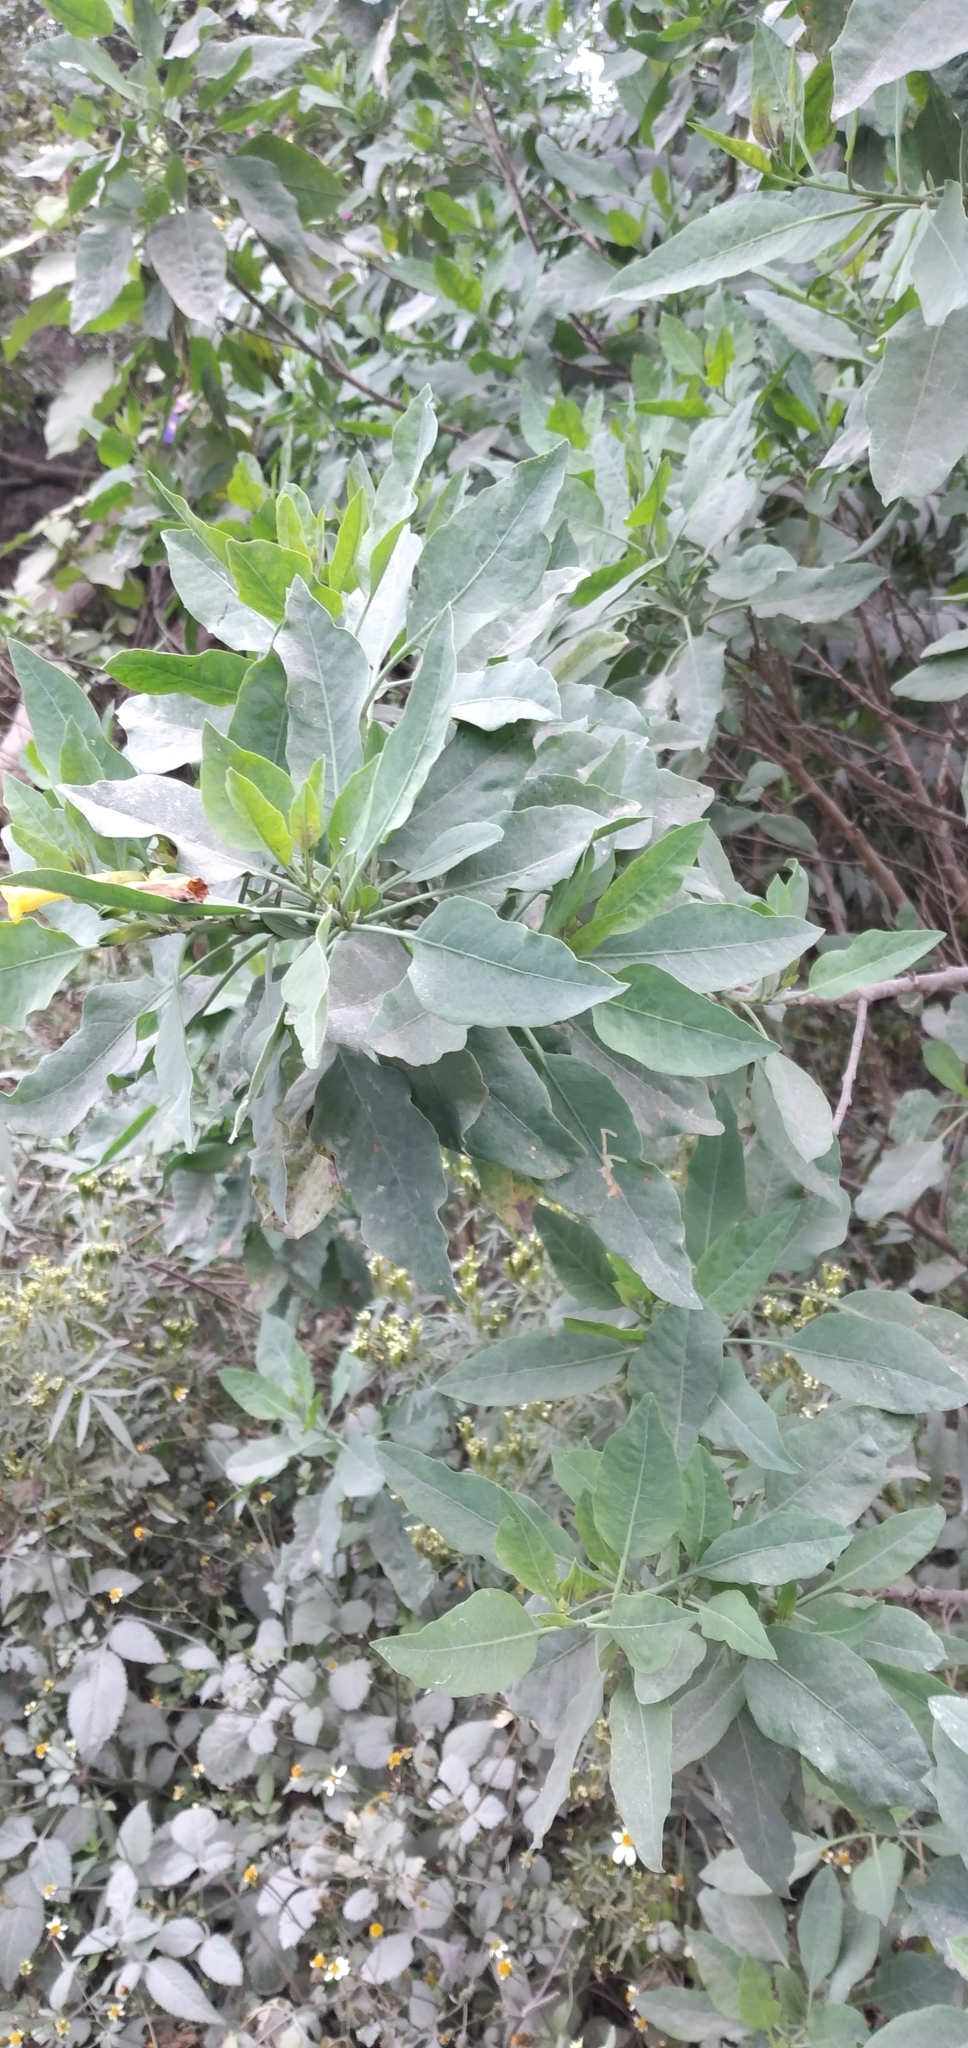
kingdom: Plantae
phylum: Tracheophyta
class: Magnoliopsida
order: Solanales
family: Solanaceae
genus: Nicotiana
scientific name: Nicotiana glauca
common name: Tree tobacco
